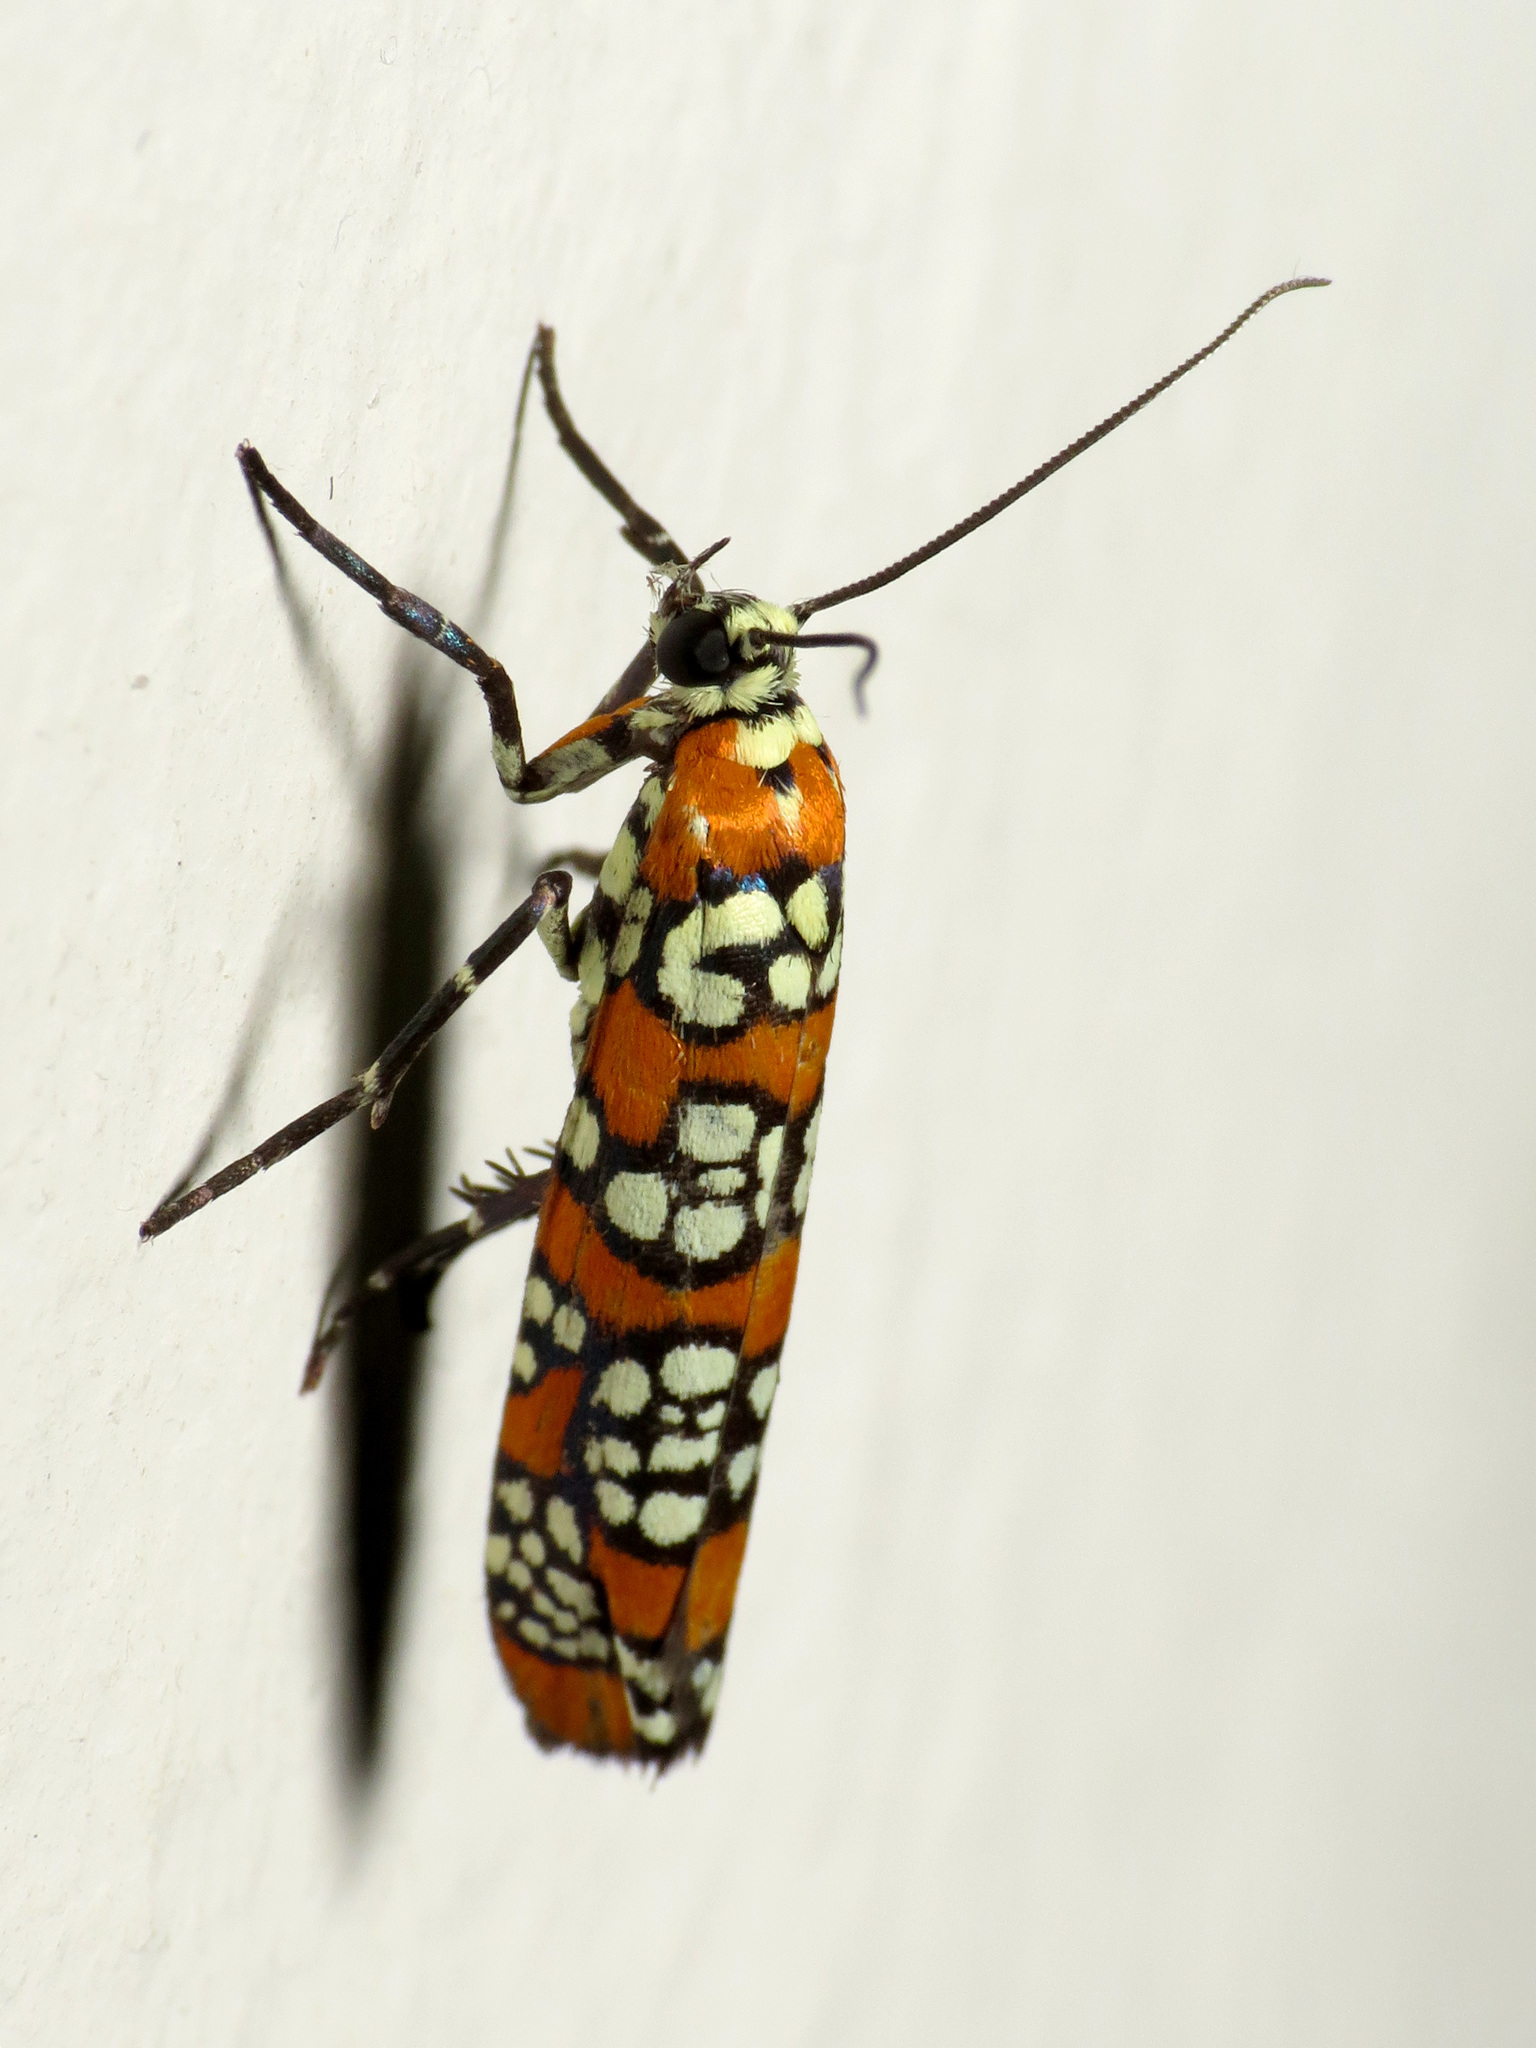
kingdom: Animalia
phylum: Arthropoda
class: Insecta
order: Lepidoptera
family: Attevidae
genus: Atteva
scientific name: Atteva punctella
